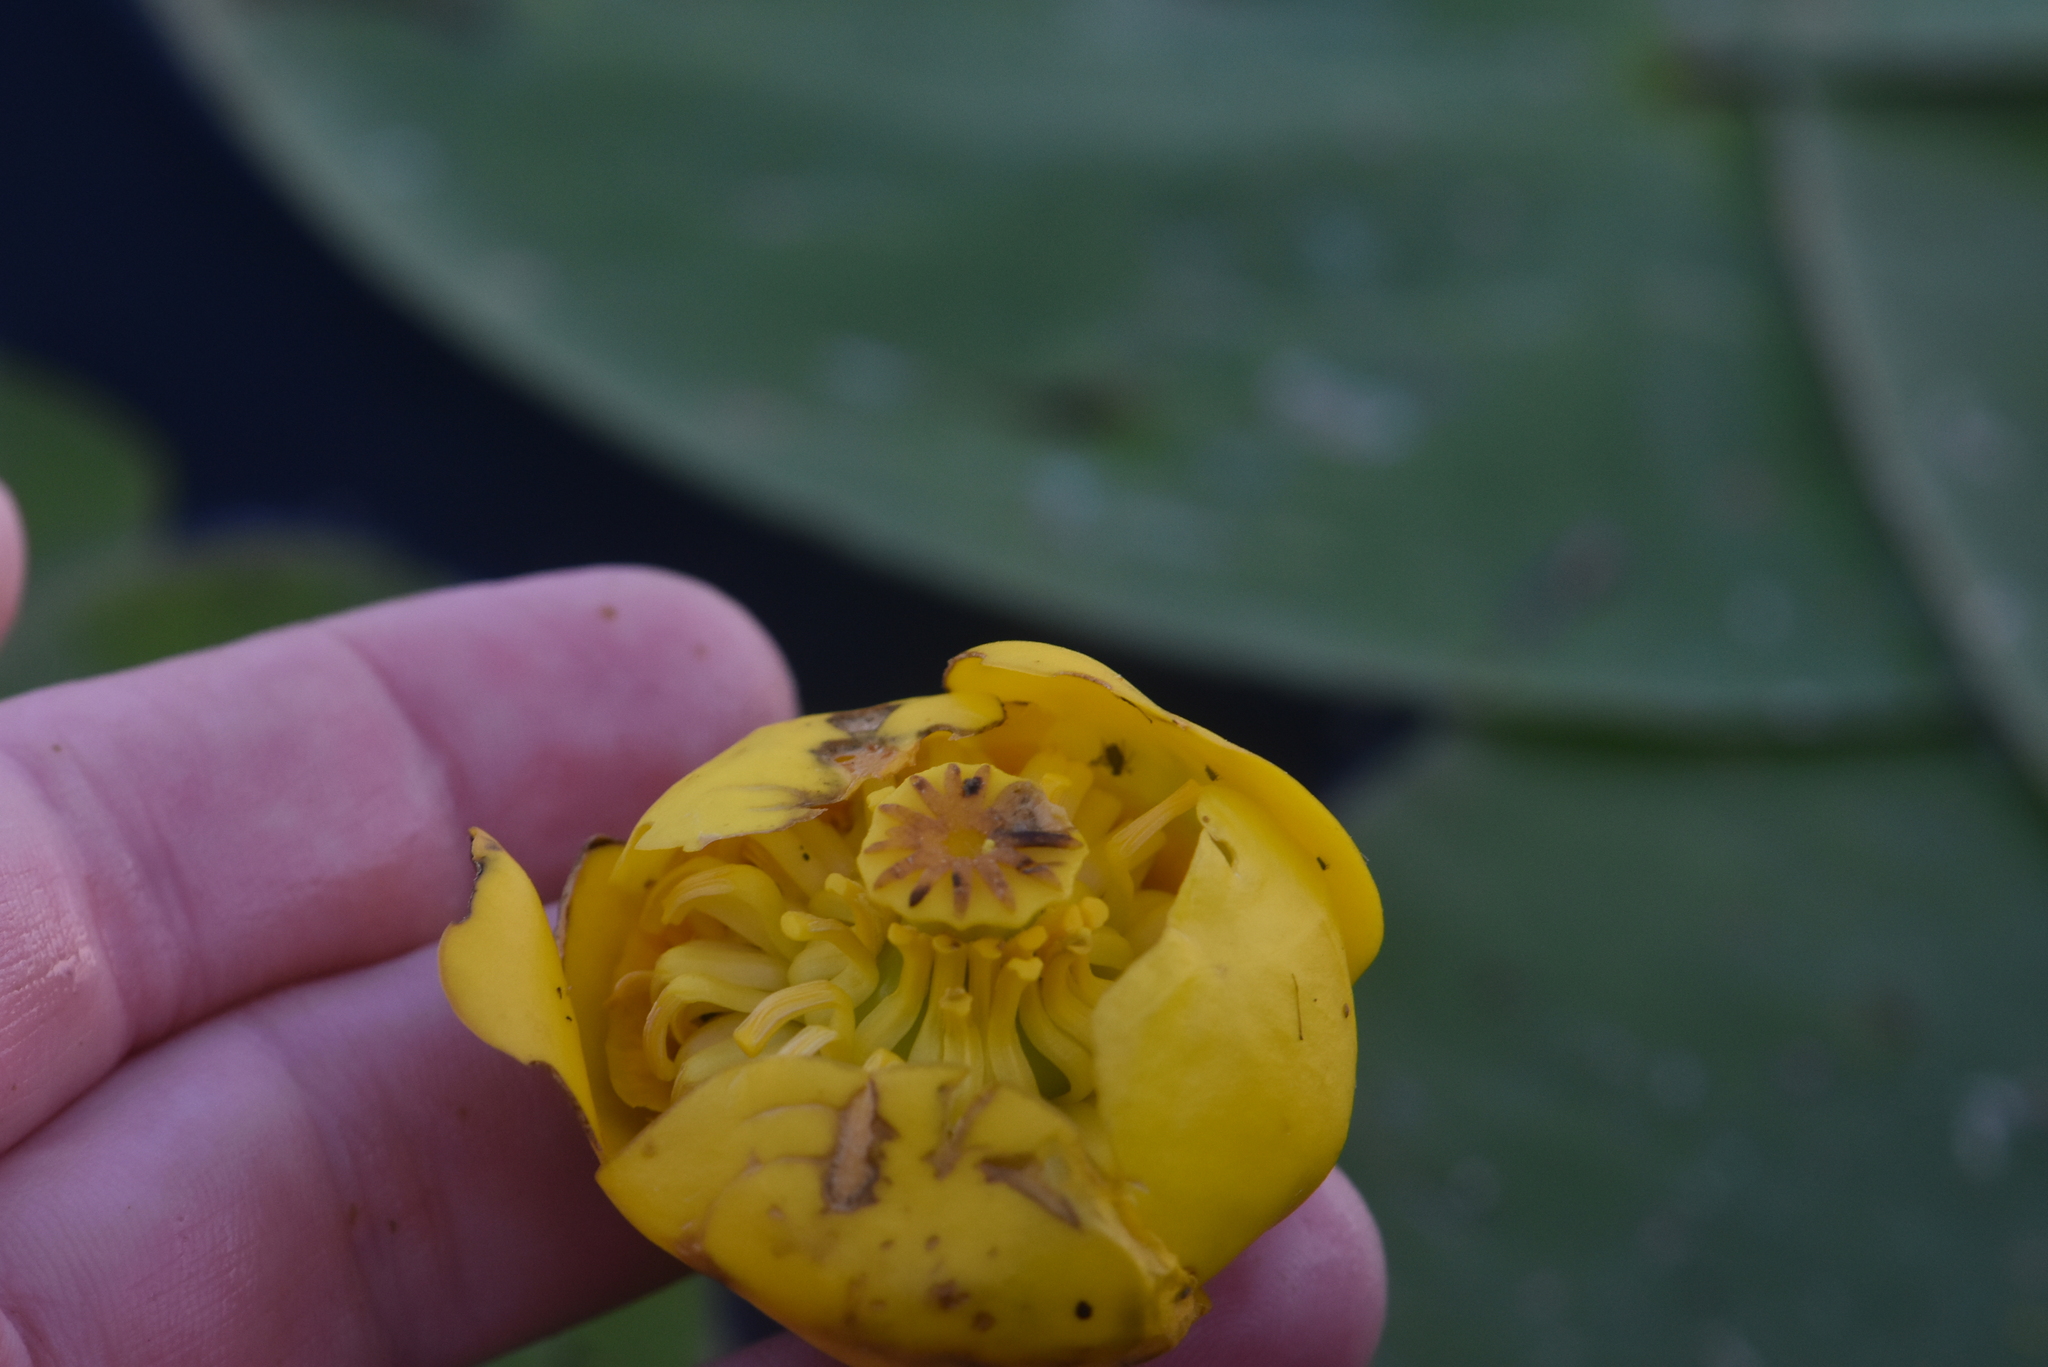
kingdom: Plantae
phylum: Tracheophyta
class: Magnoliopsida
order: Nymphaeales
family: Nymphaeaceae
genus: Nuphar
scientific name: Nuphar lutea
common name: Yellow water-lily
